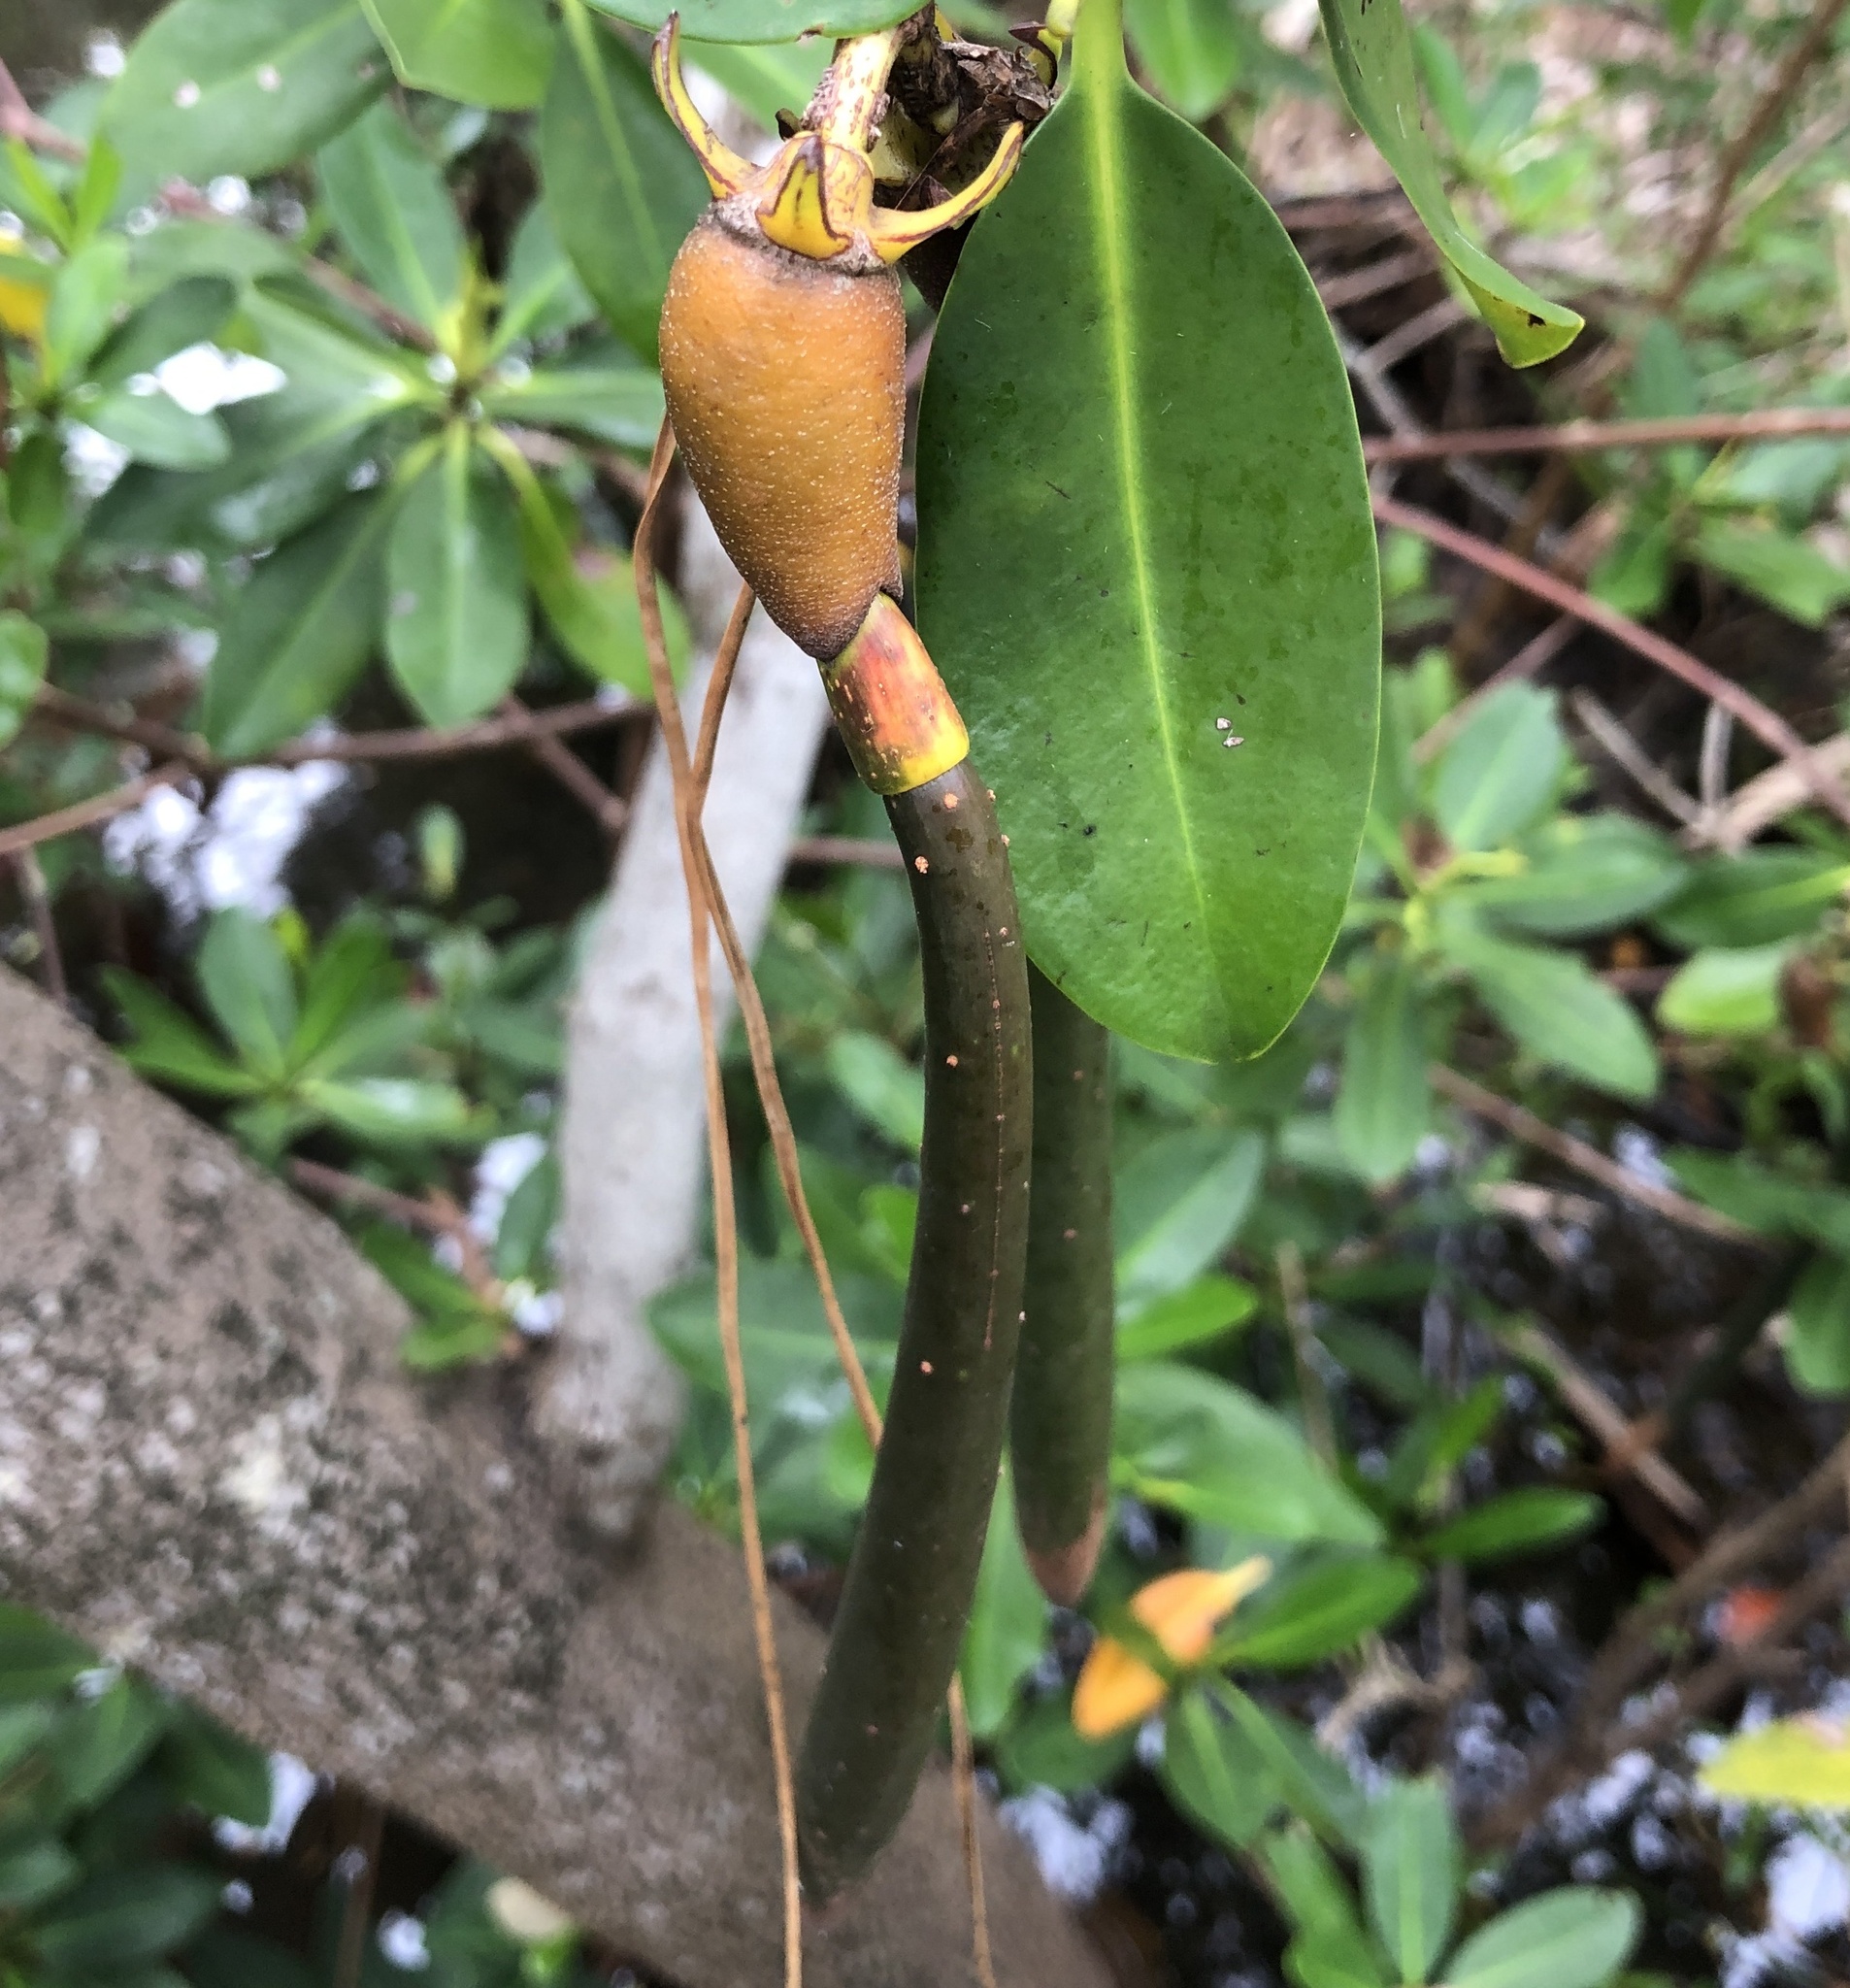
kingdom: Plantae
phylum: Tracheophyta
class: Magnoliopsida
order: Malpighiales
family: Rhizophoraceae
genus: Rhizophora
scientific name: Rhizophora mangle
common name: Red mangrove
